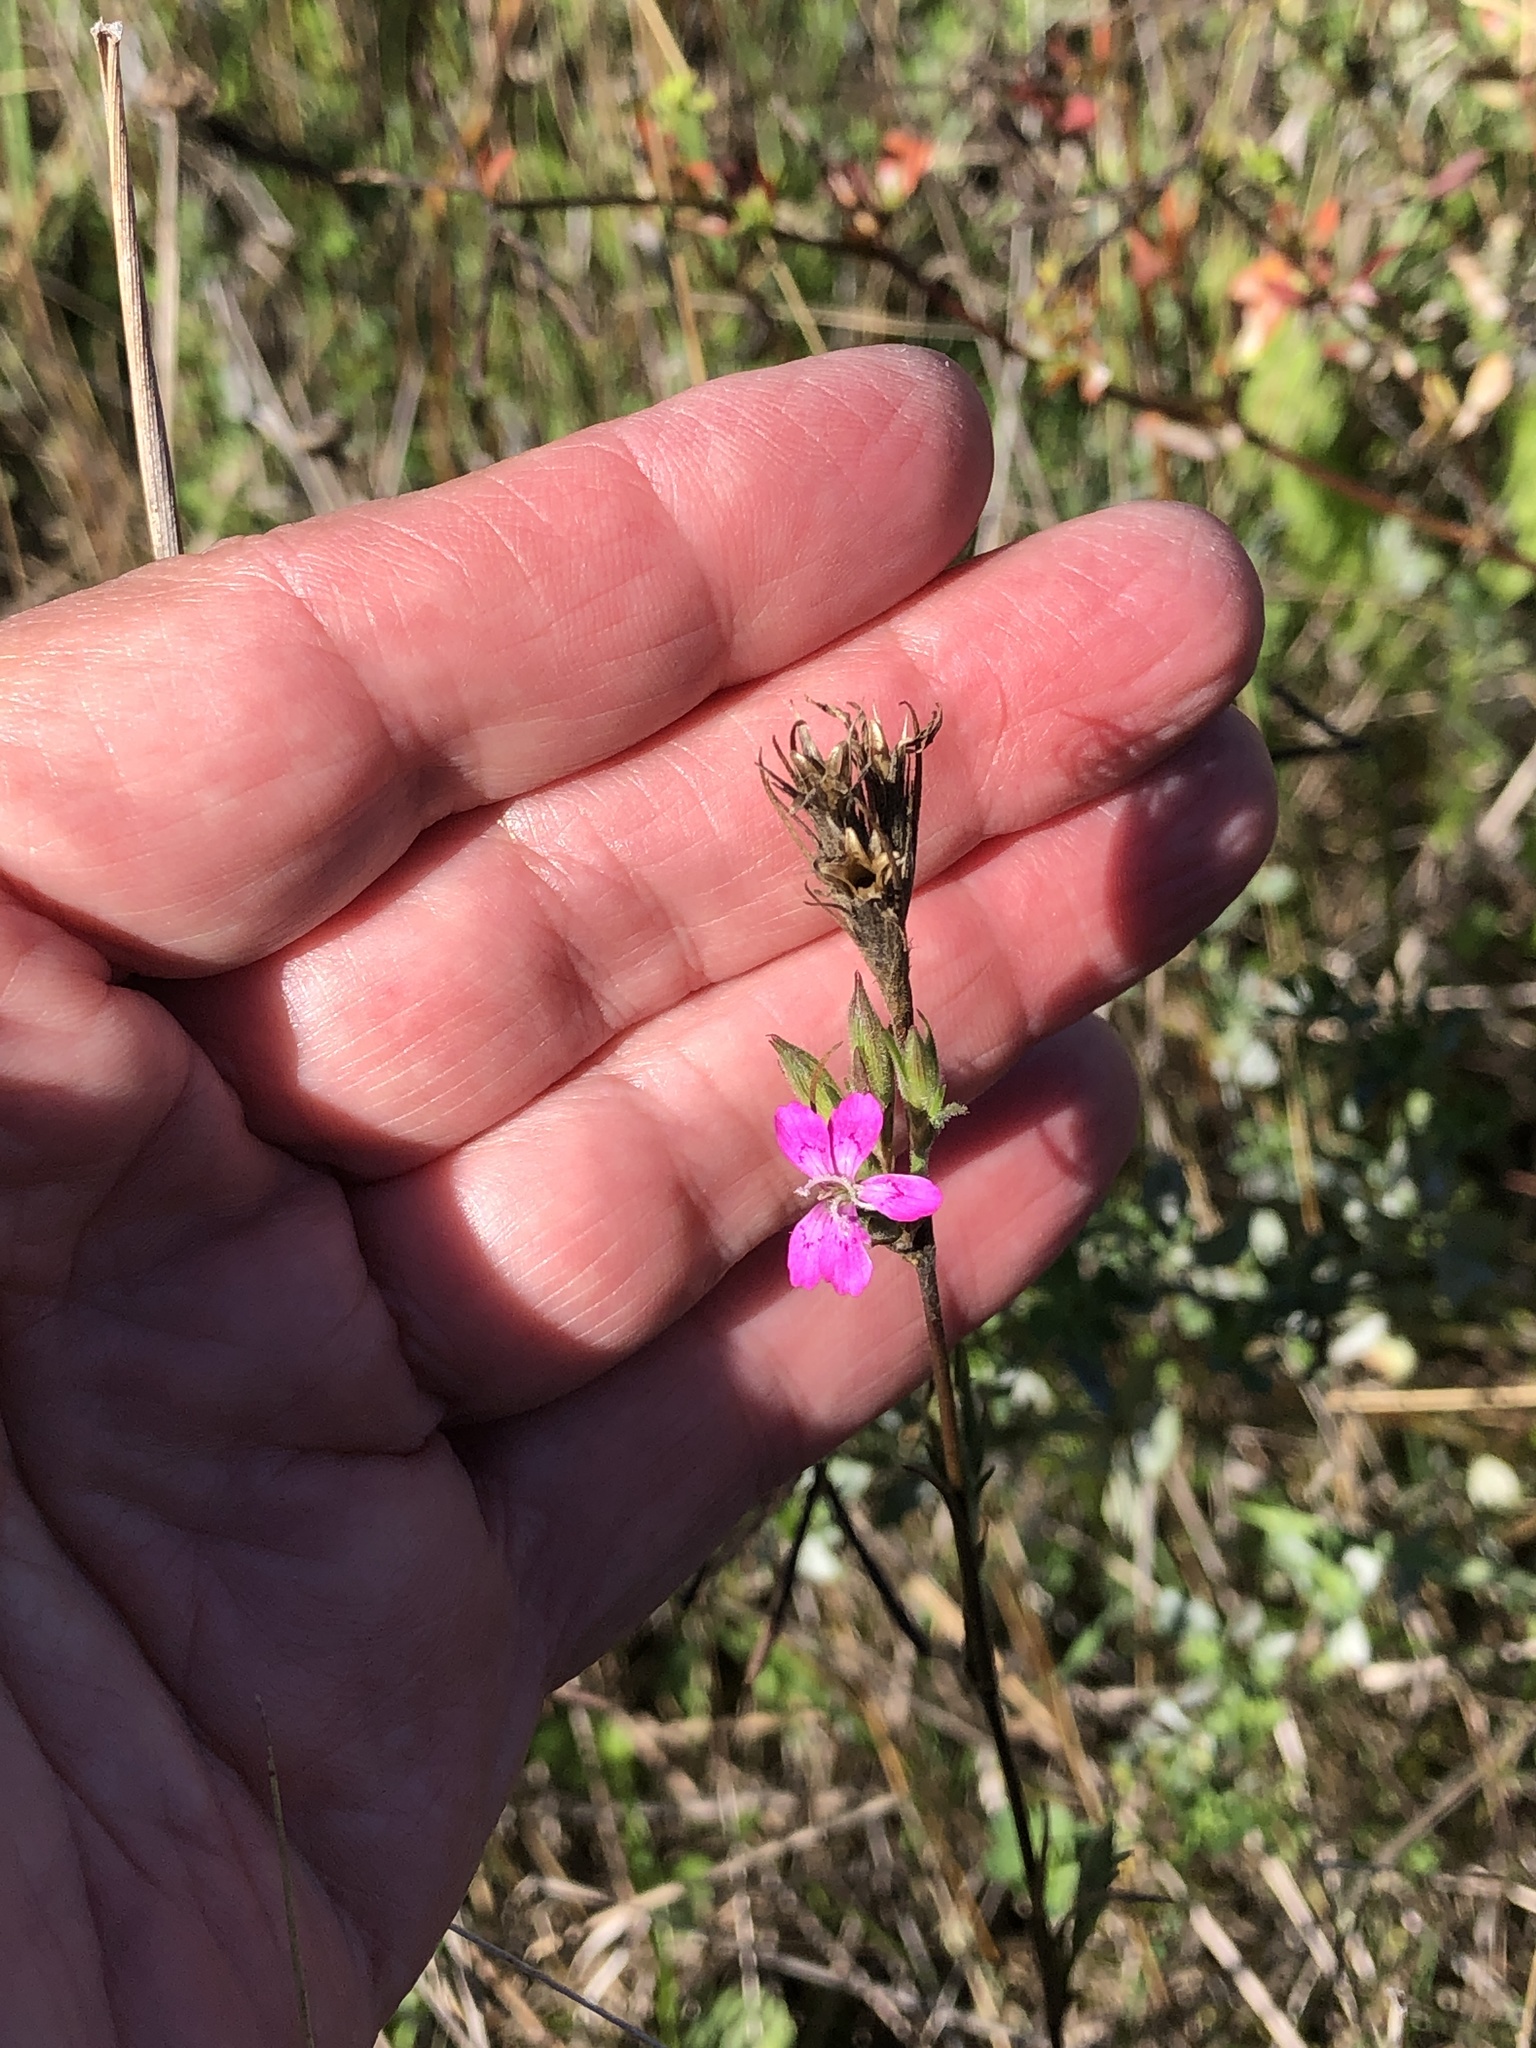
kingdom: Plantae
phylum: Tracheophyta
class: Magnoliopsida
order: Caryophyllales
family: Caryophyllaceae
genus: Dianthus
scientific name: Dianthus armeria
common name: Deptford pink
